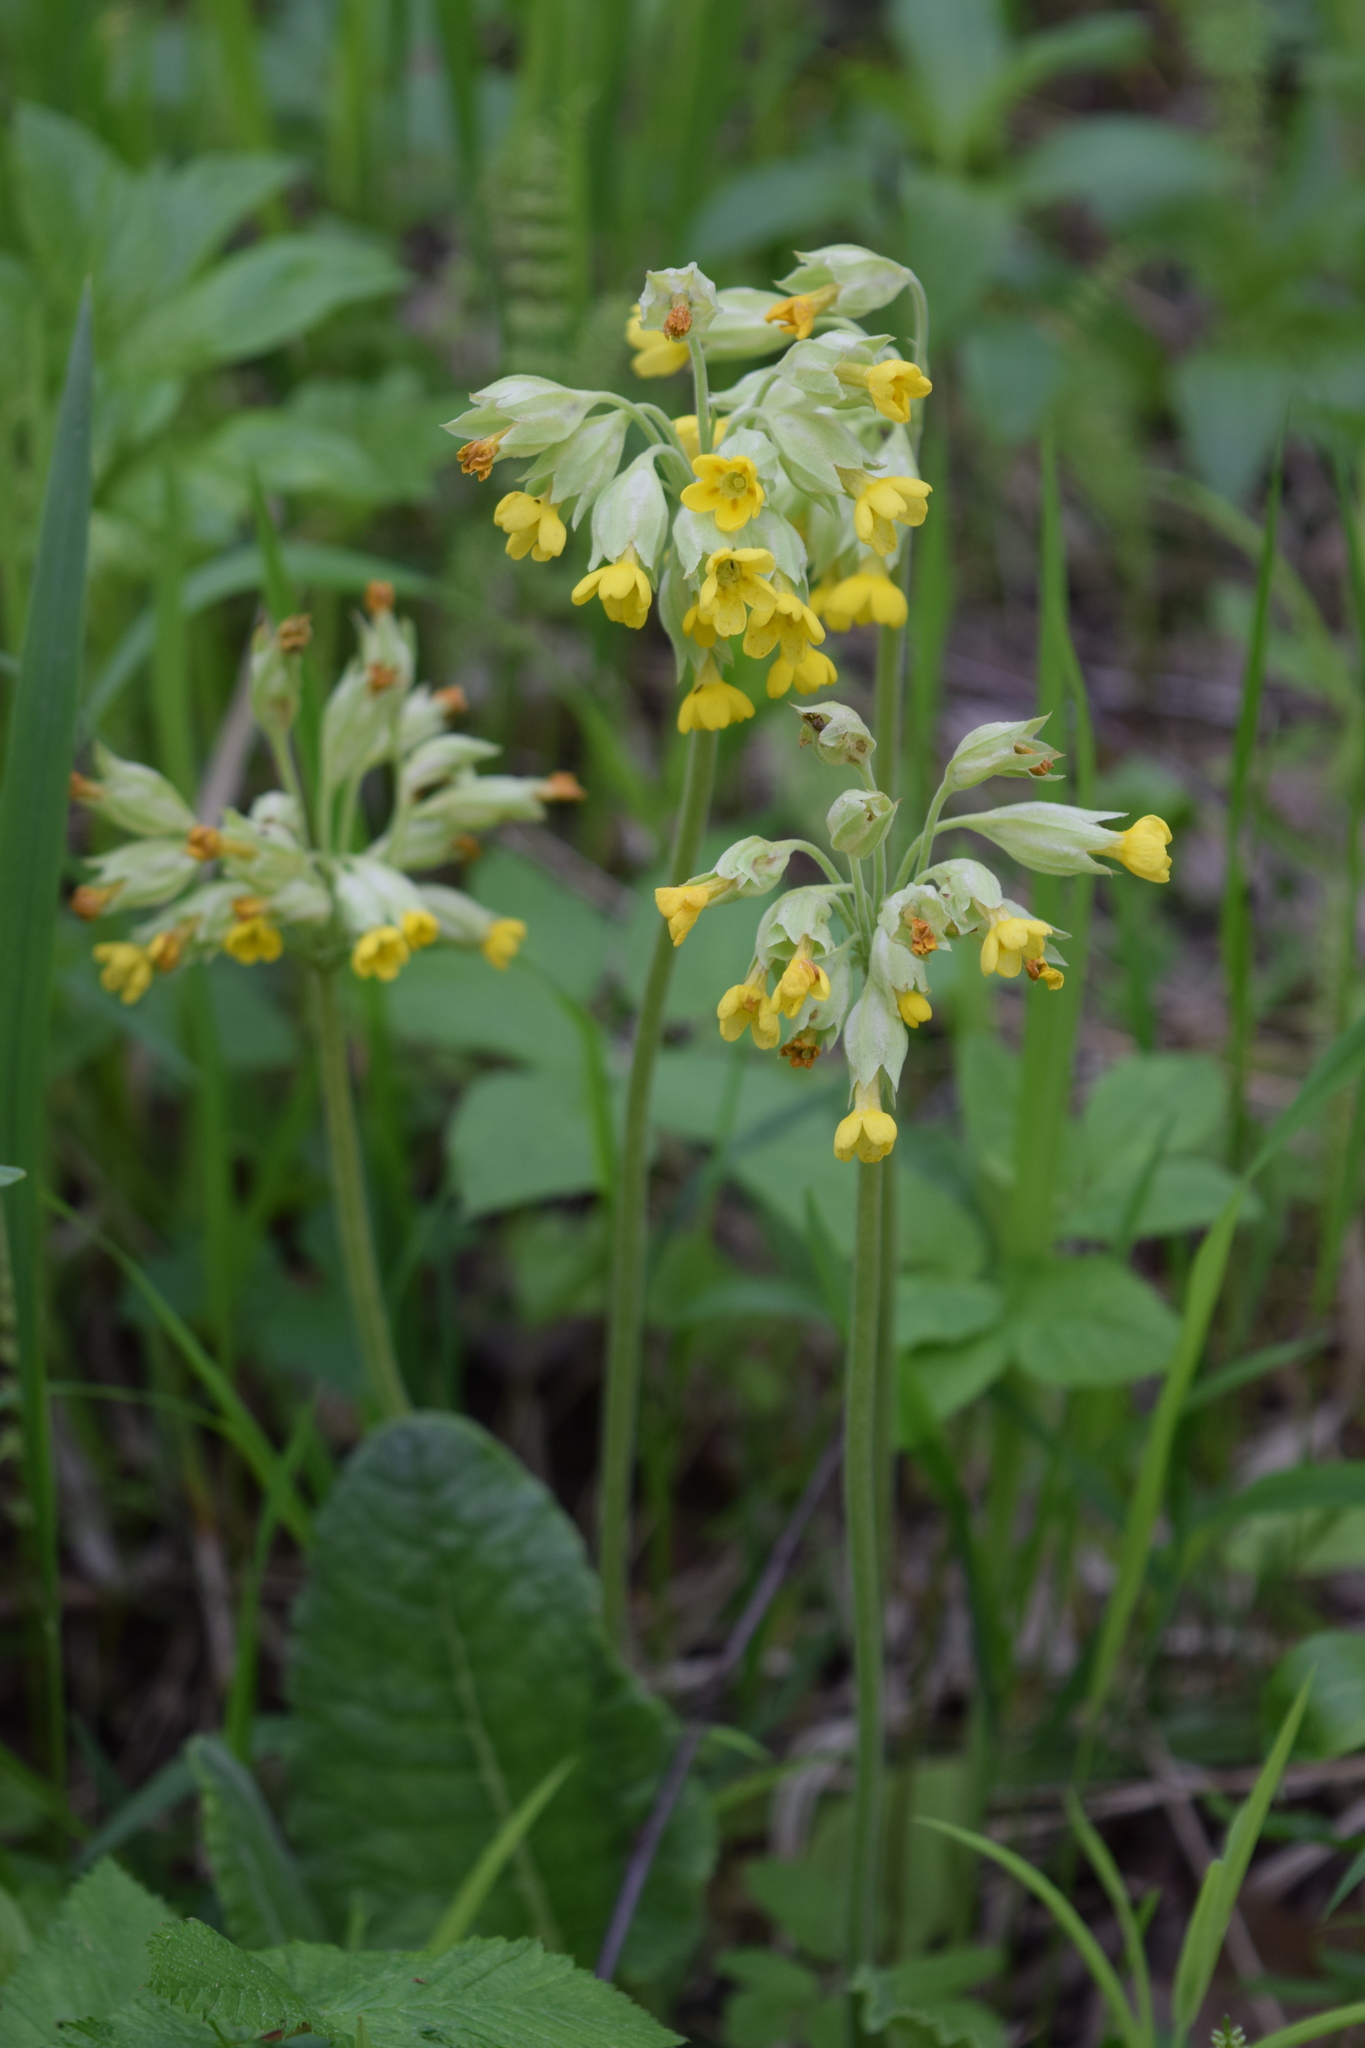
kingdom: Plantae
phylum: Tracheophyta
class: Magnoliopsida
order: Ericales
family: Primulaceae
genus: Primula
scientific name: Primula veris
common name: Cowslip
